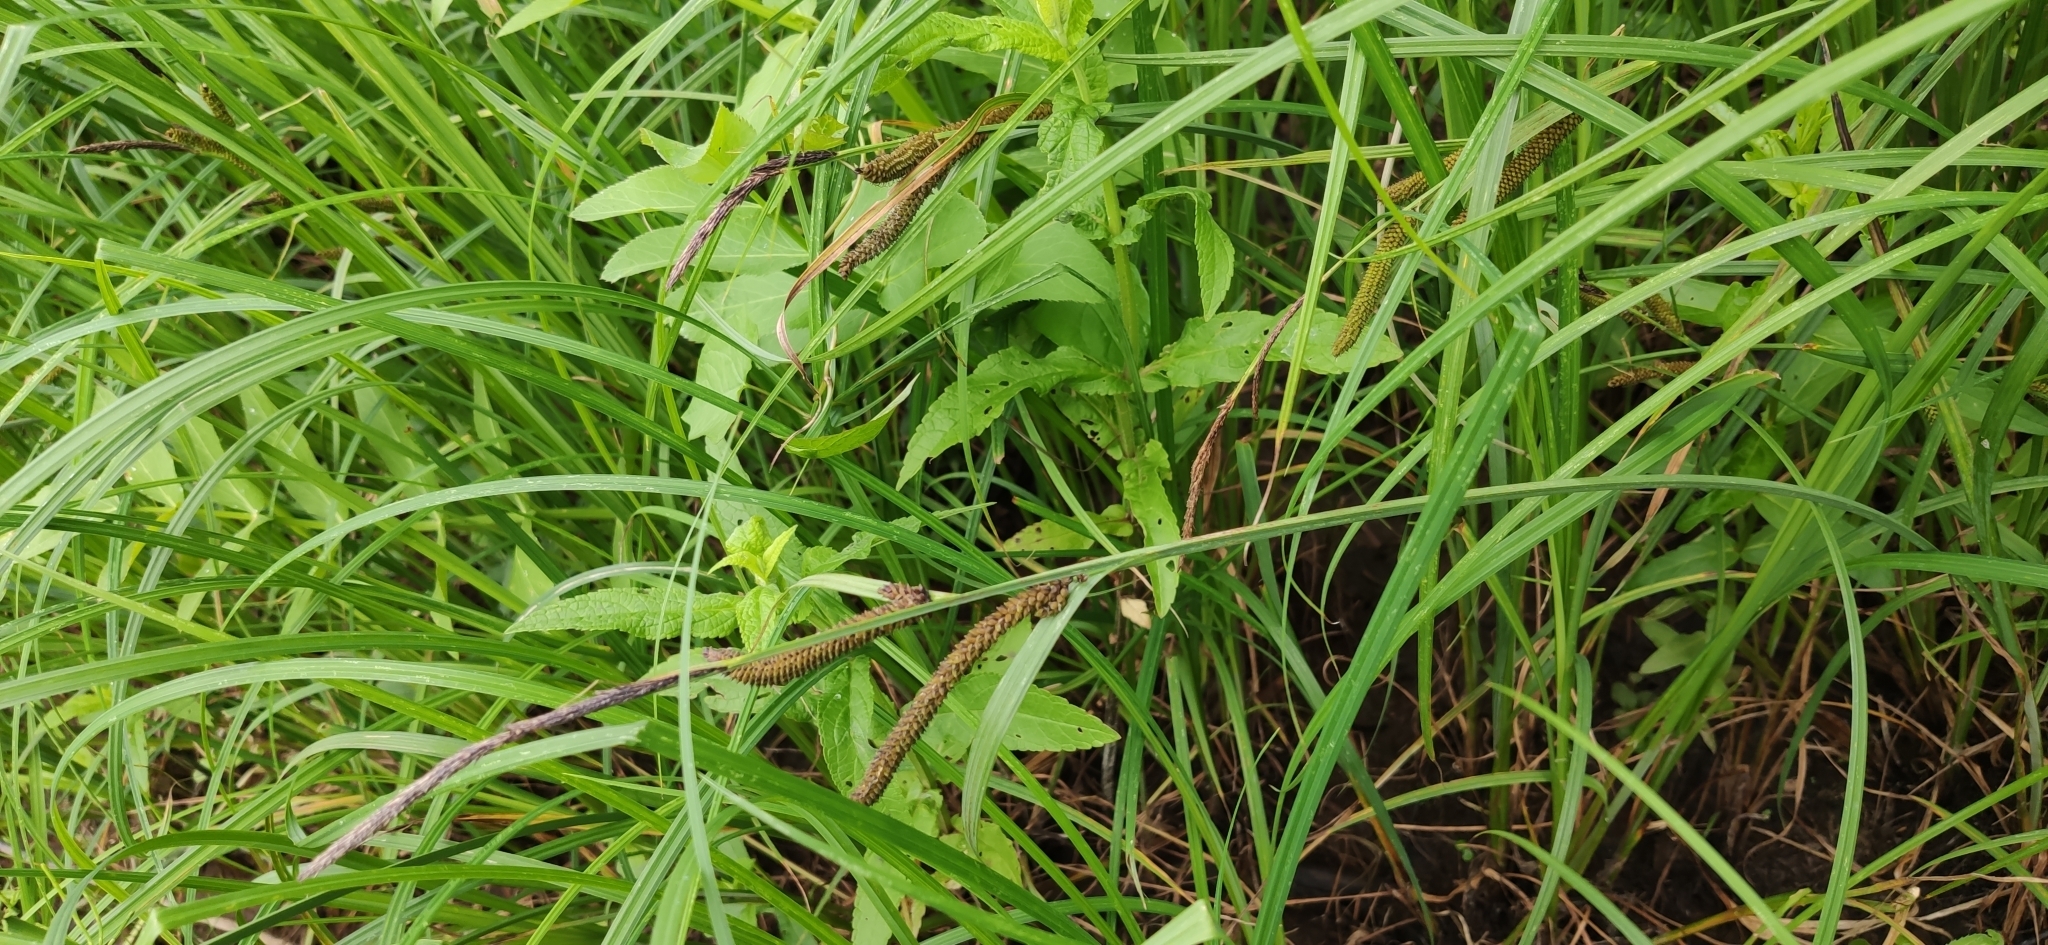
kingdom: Plantae
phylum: Tracheophyta
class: Liliopsida
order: Poales
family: Cyperaceae
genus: Carex
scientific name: Carex acuta
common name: Slender tufted-sedge
